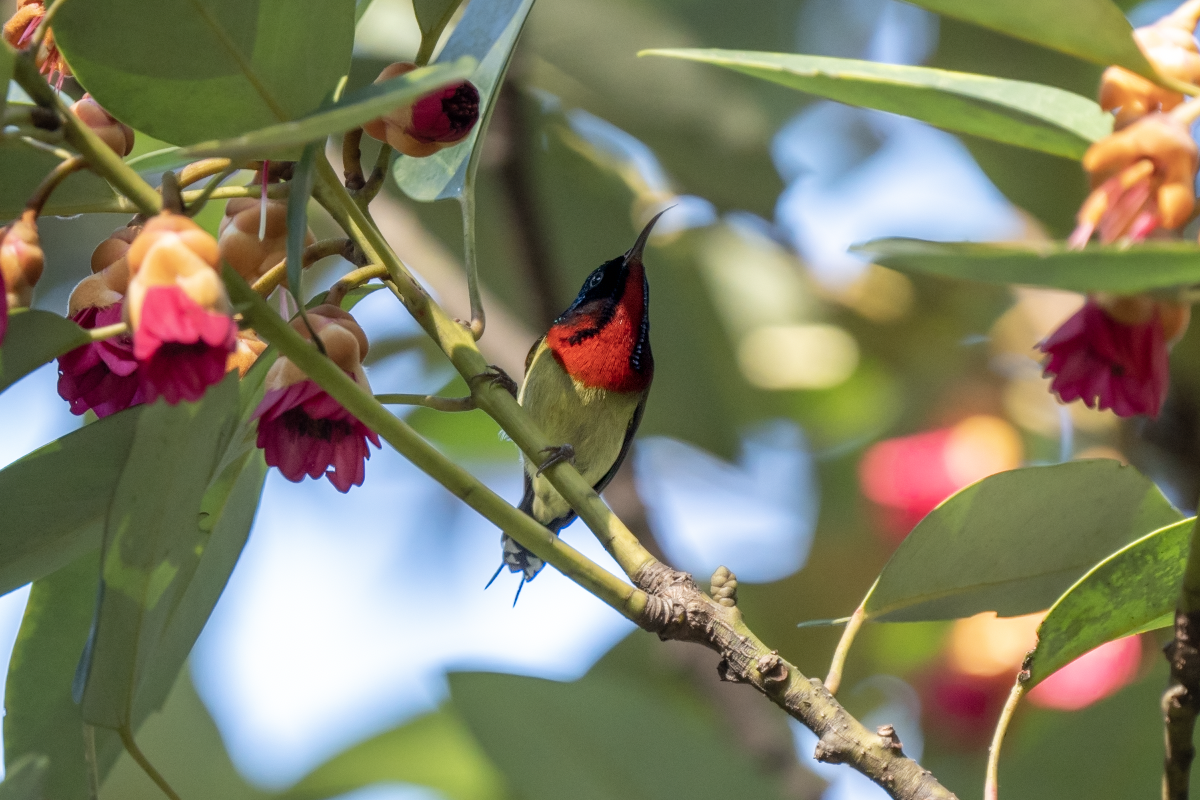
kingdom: Animalia
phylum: Chordata
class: Aves
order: Passeriformes
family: Nectariniidae
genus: Aethopyga
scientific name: Aethopyga christinae
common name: Fork-tailed sunbird
